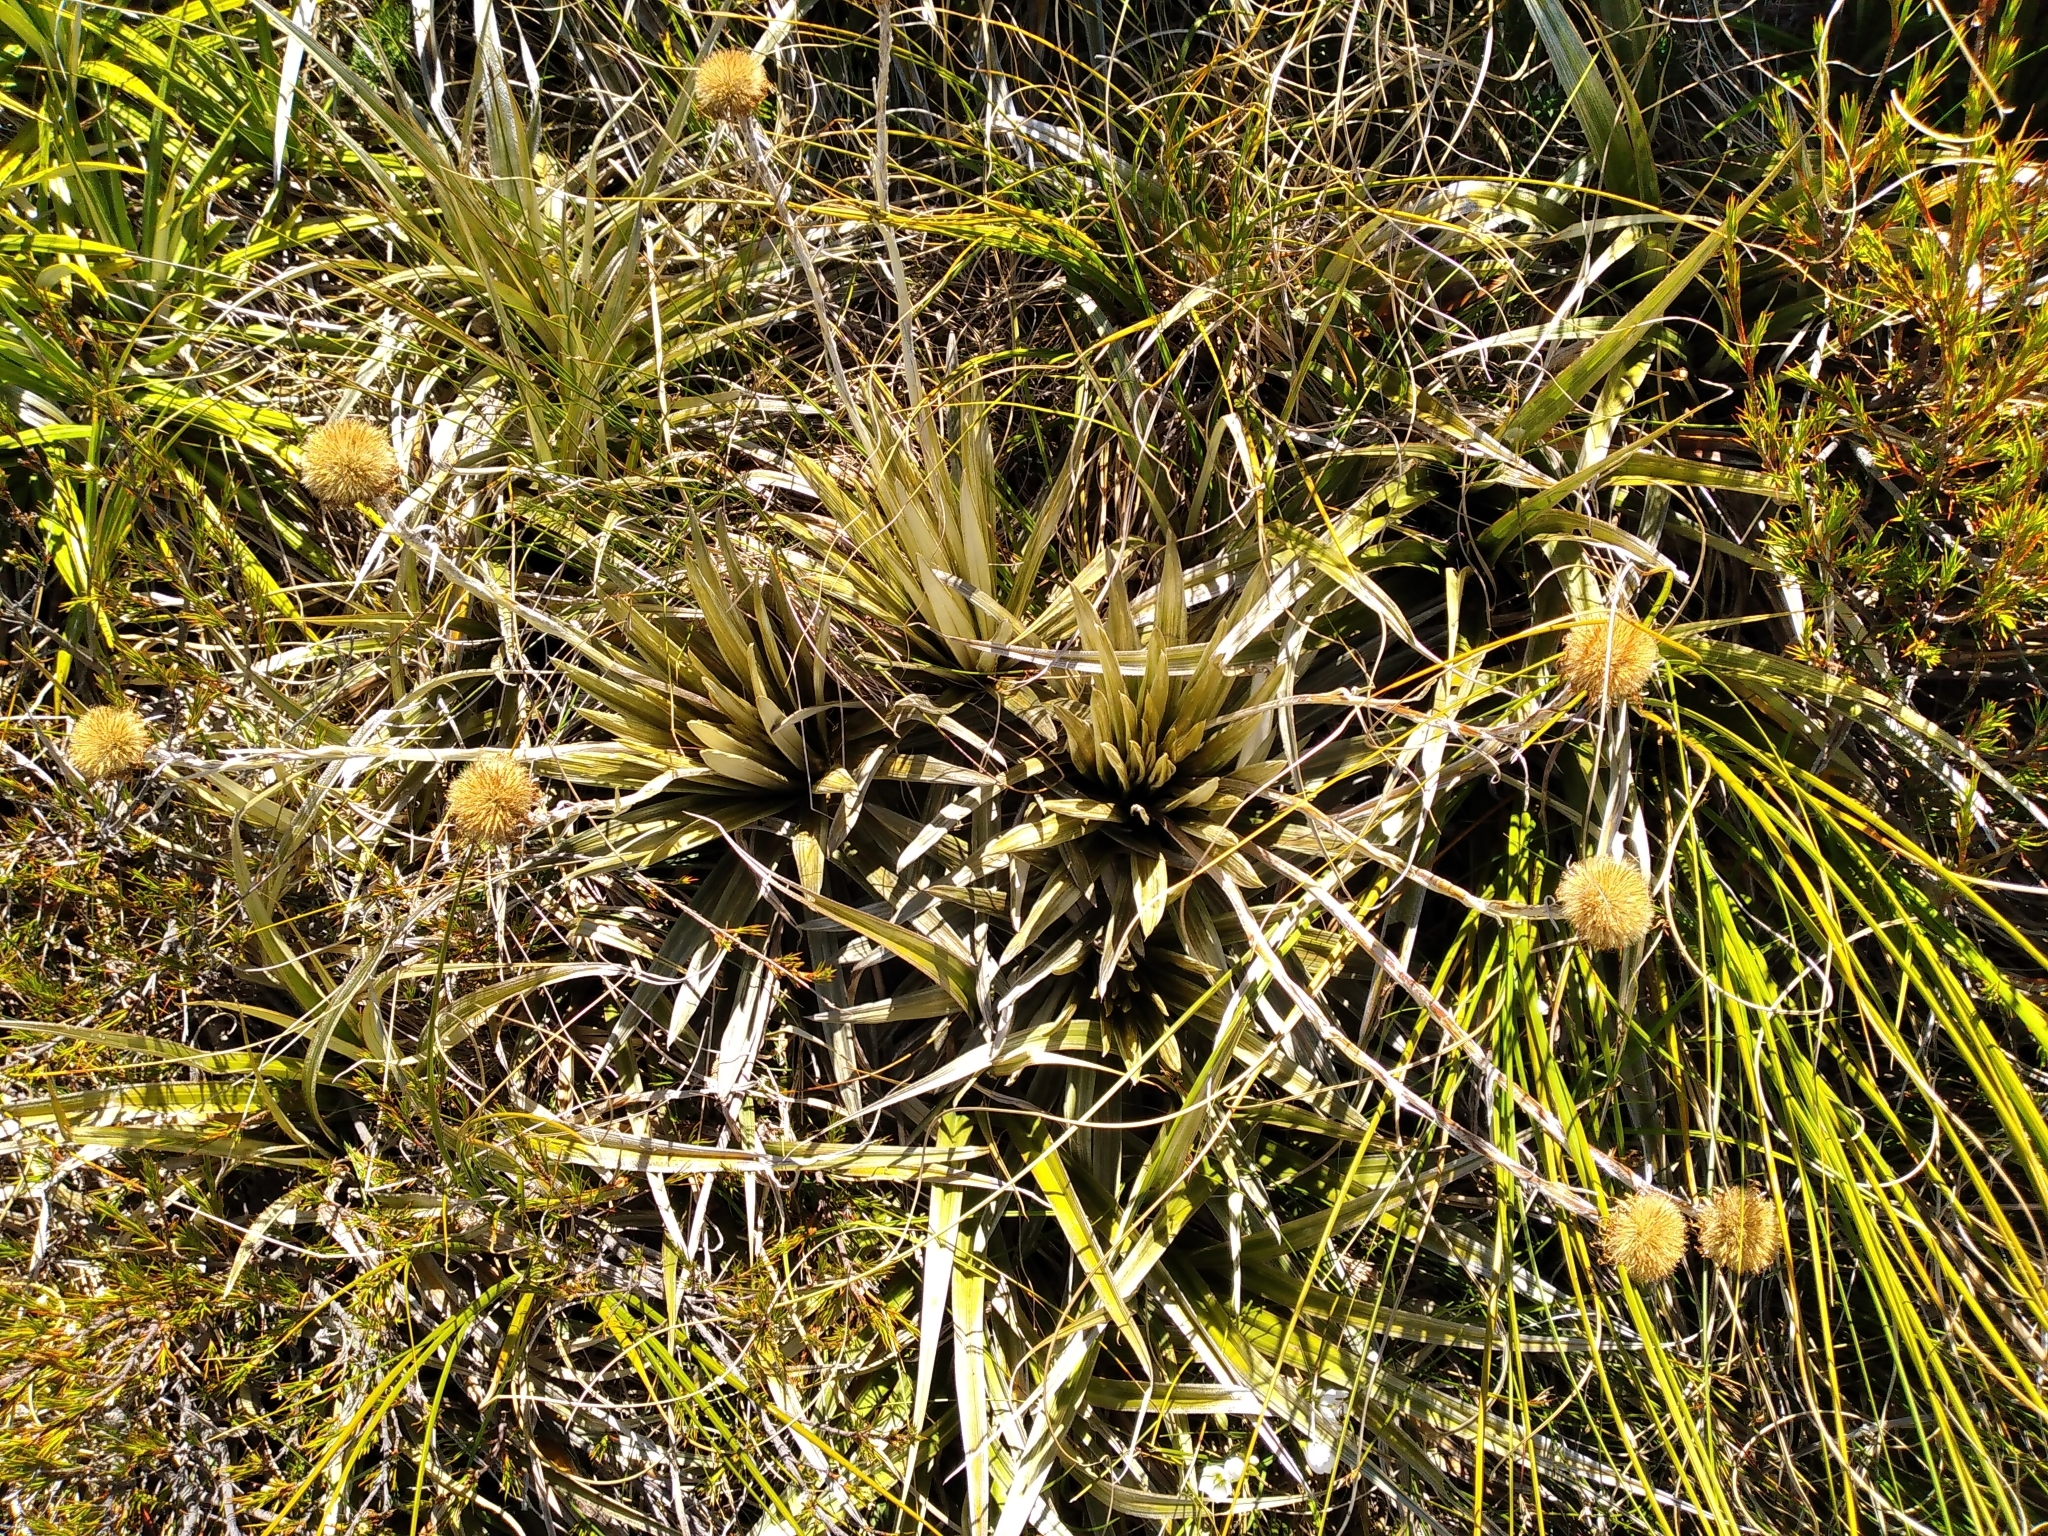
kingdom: Plantae
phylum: Tracheophyta
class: Magnoliopsida
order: Asterales
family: Asteraceae
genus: Celmisia
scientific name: Celmisia armstrongii
